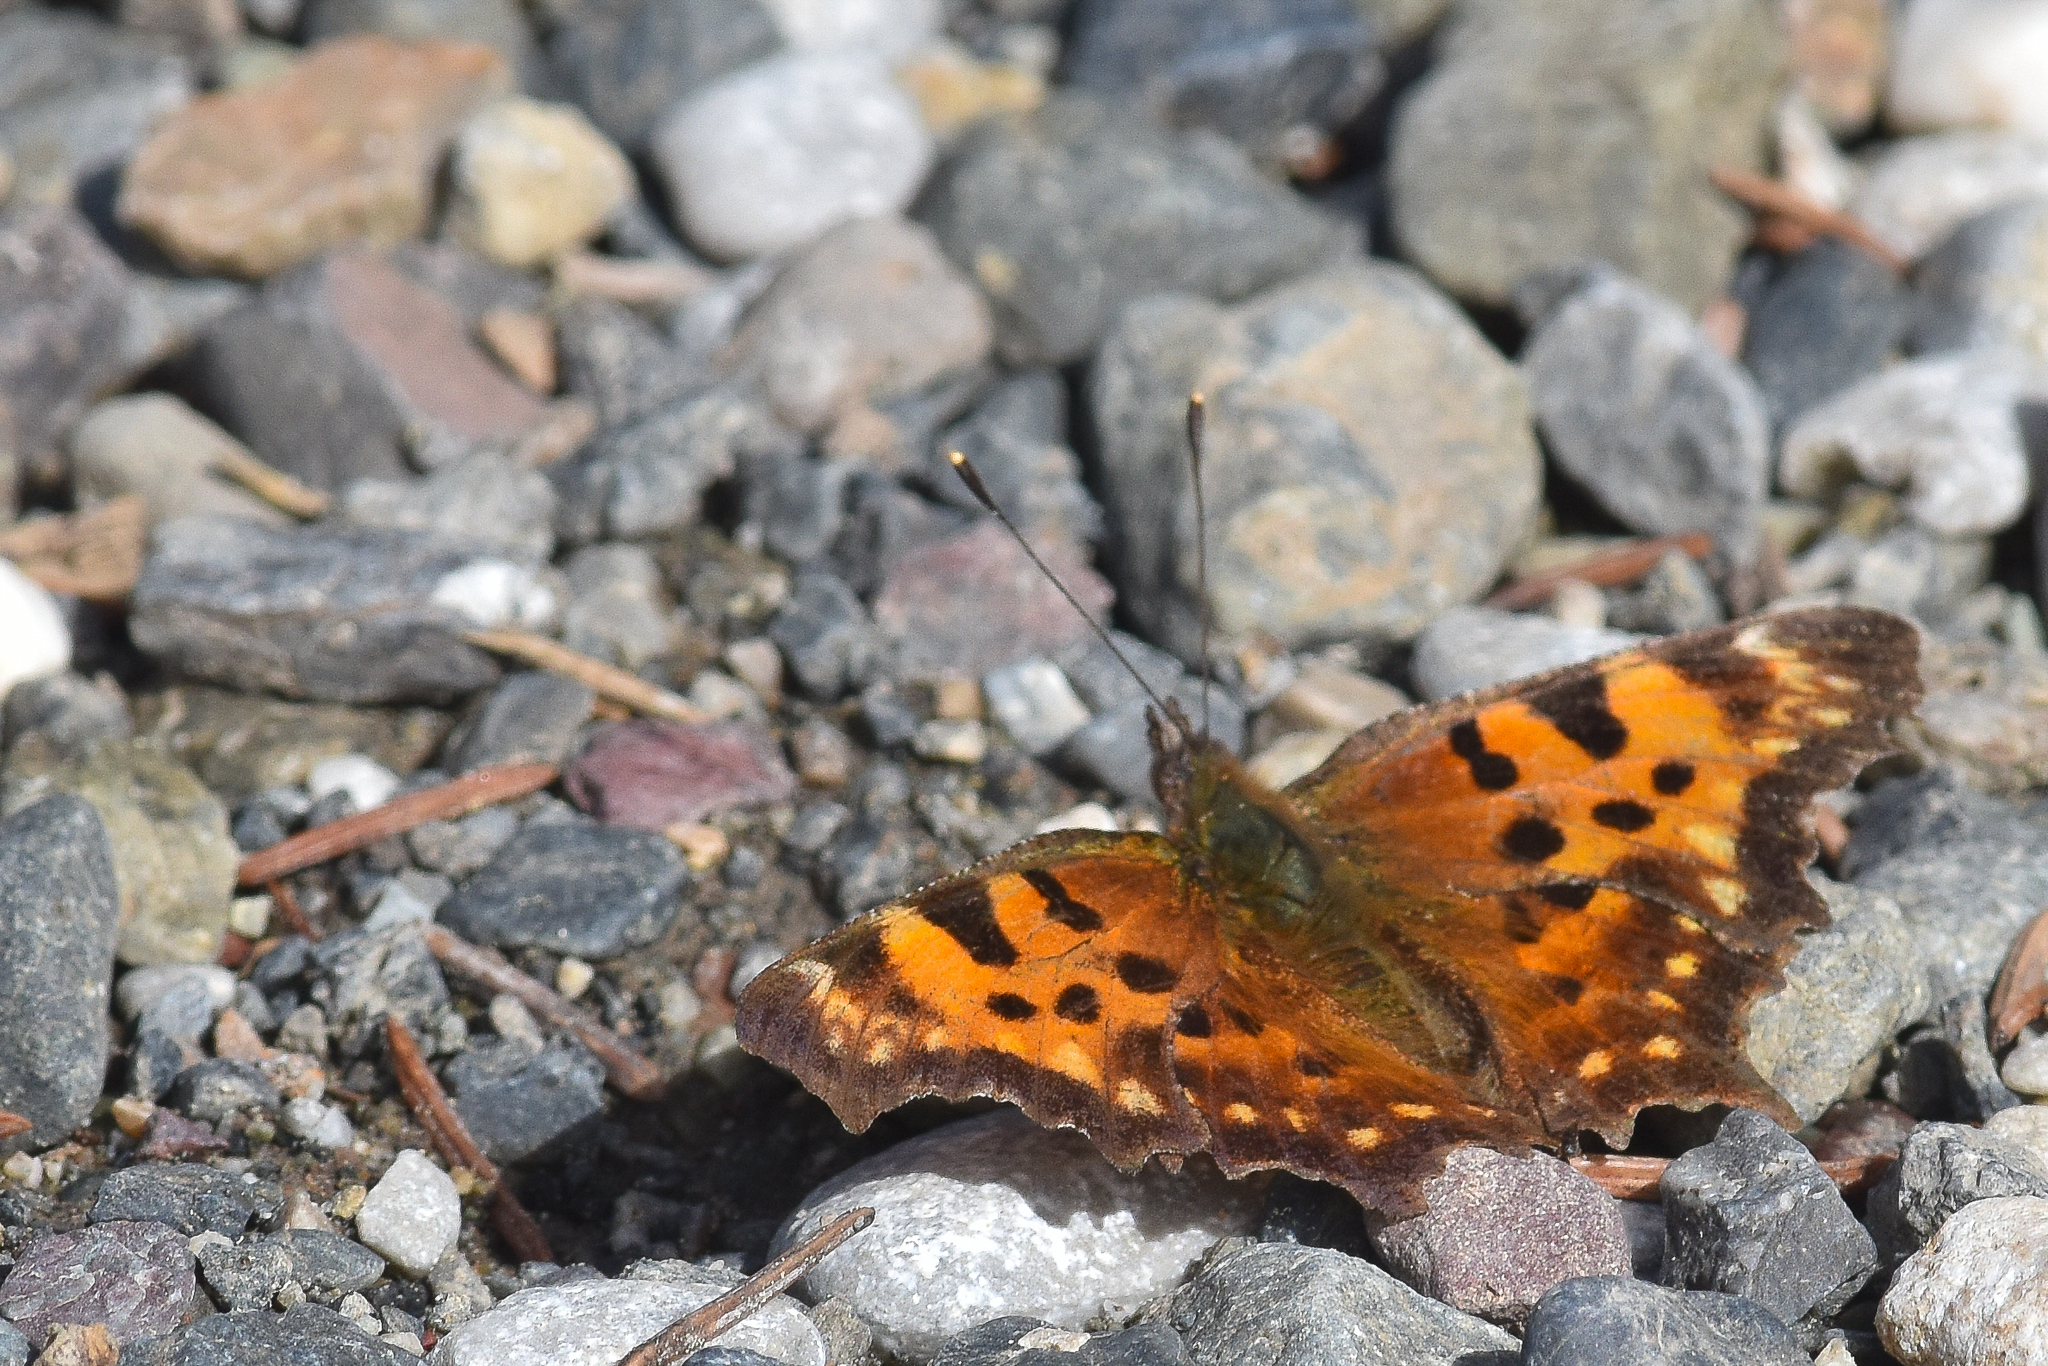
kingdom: Animalia
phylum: Arthropoda
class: Insecta
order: Lepidoptera
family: Nymphalidae
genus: Polygonia
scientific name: Polygonia faunus
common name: Green comma
